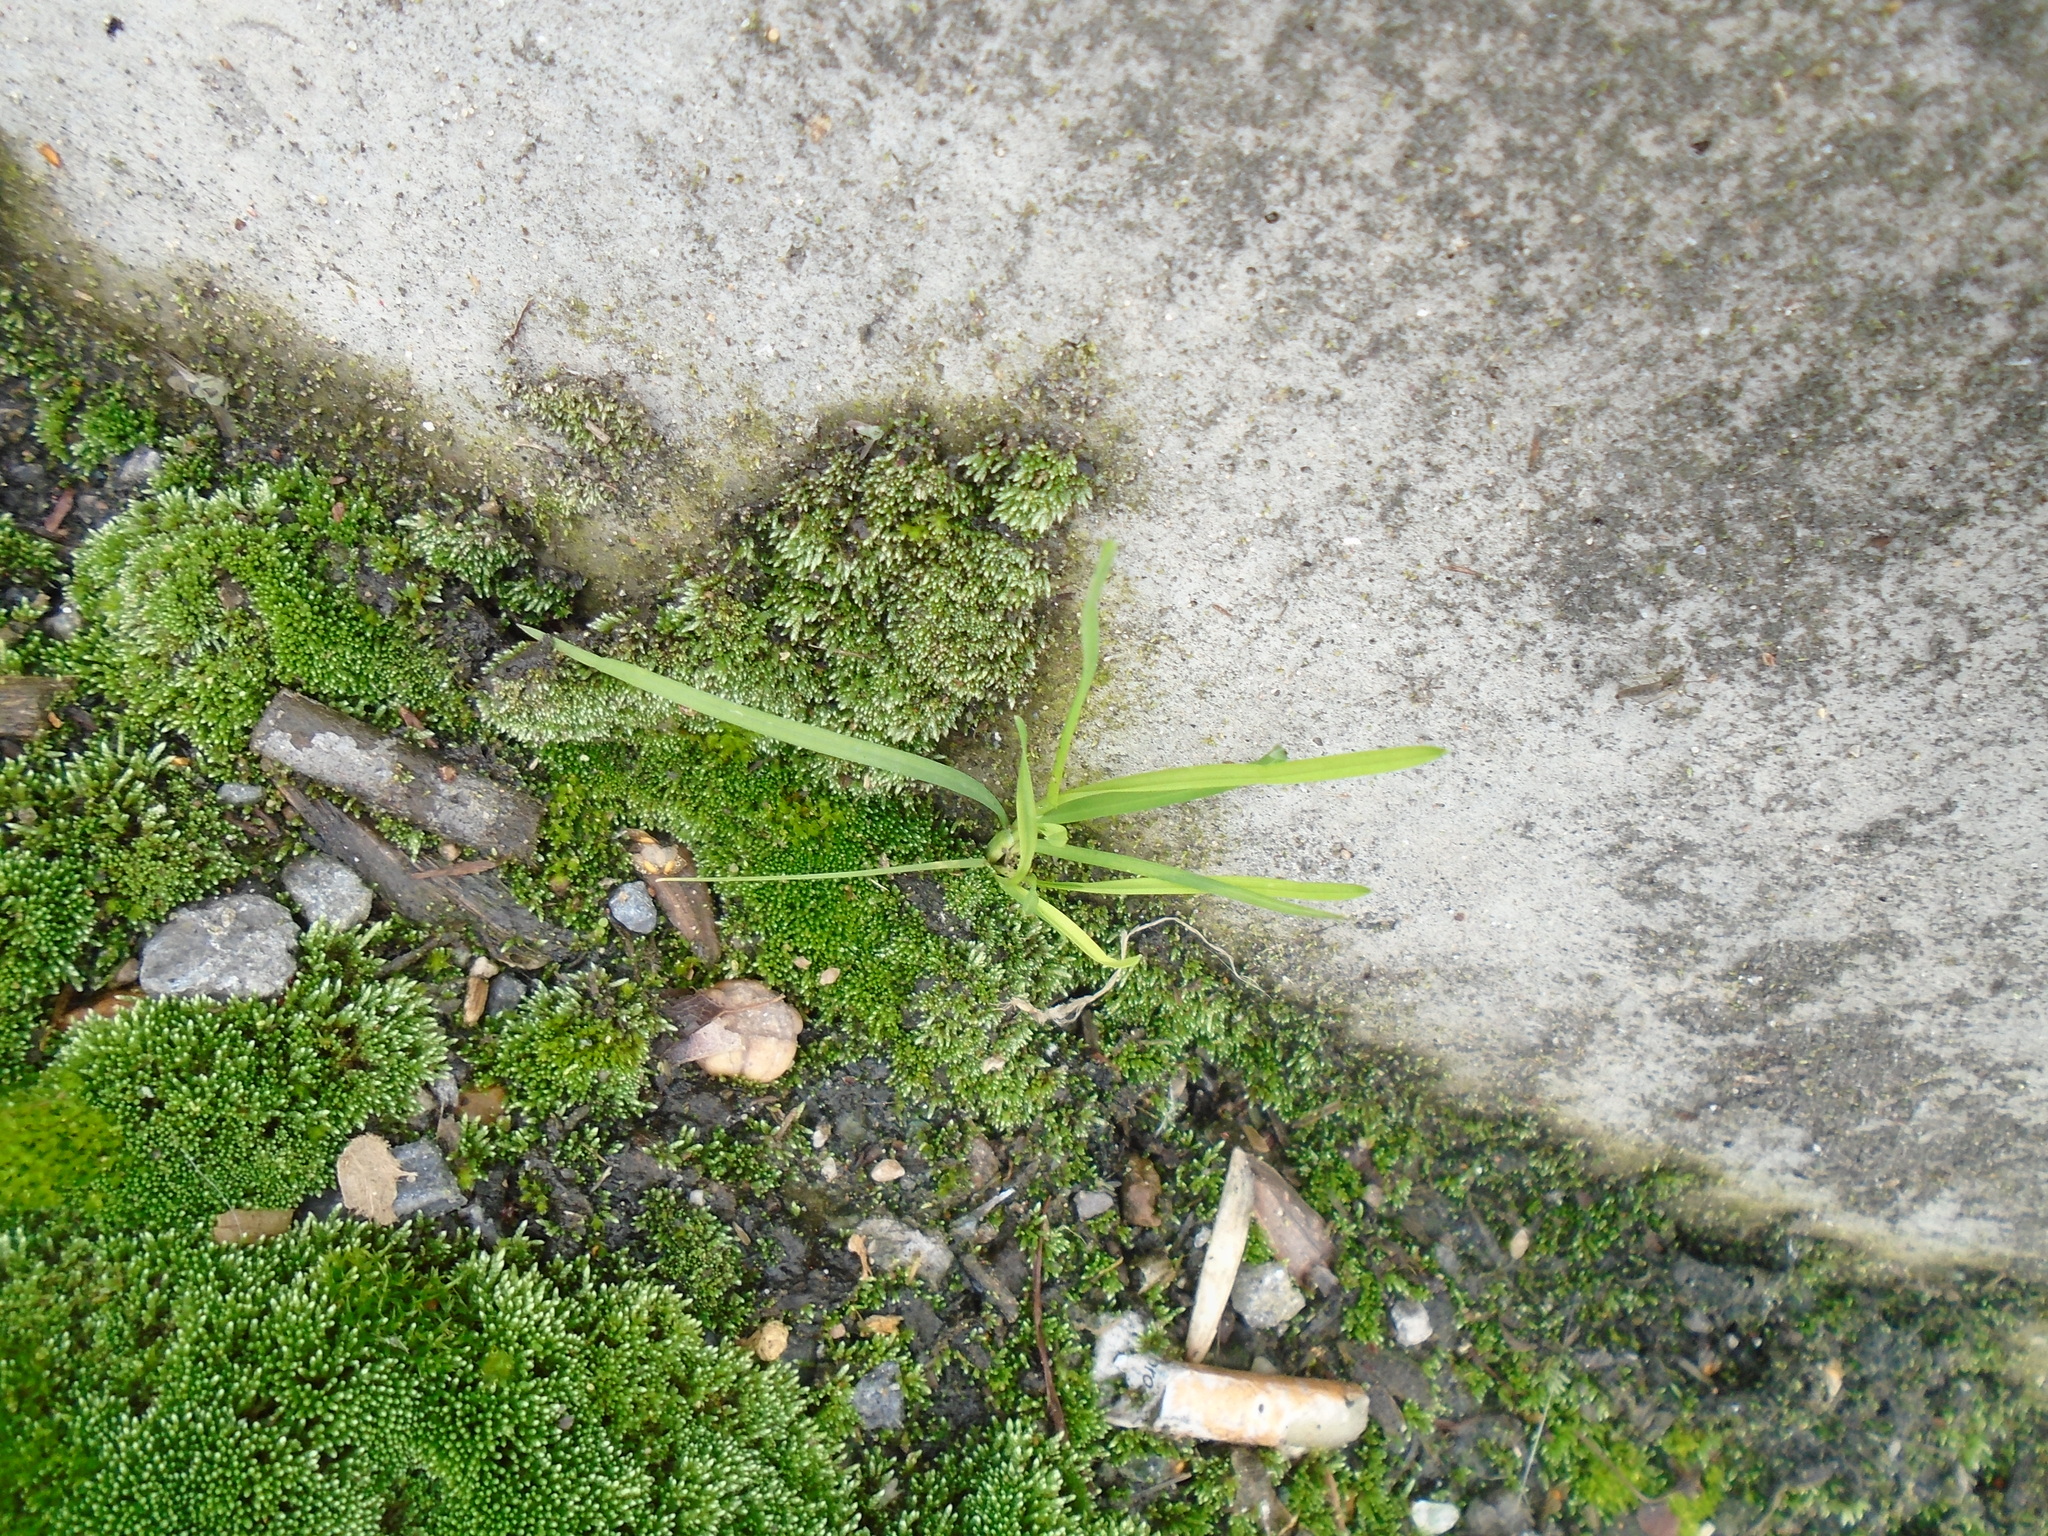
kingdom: Plantae
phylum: Bryophyta
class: Bryopsida
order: Bryales
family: Bryaceae
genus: Bryum
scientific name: Bryum argenteum
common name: Silver-moss
